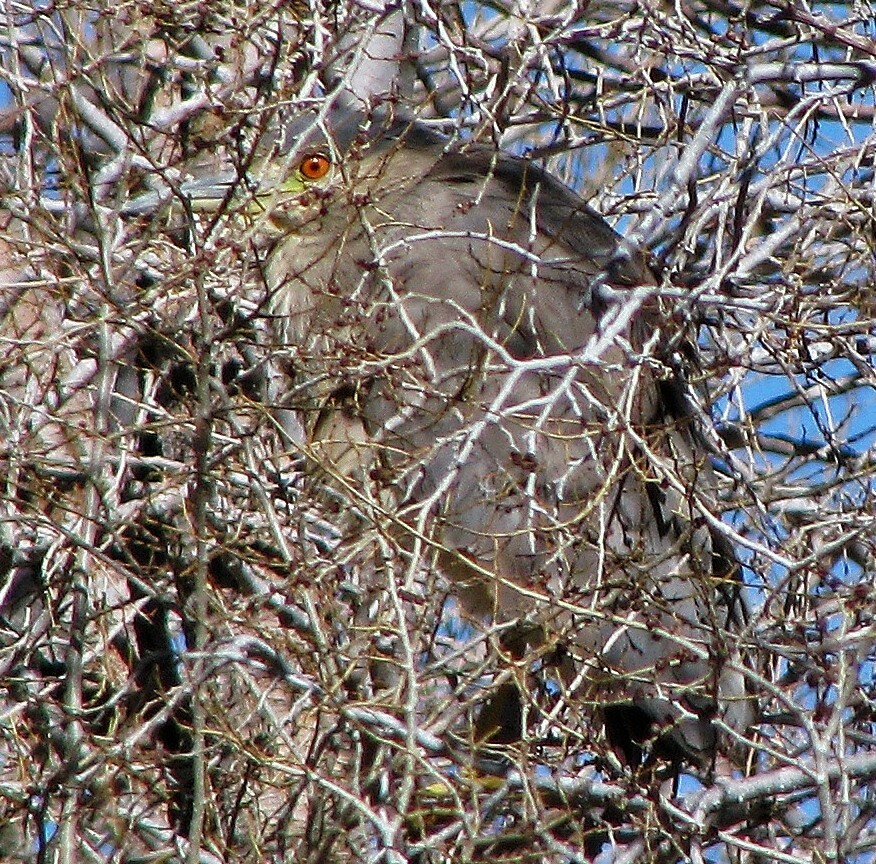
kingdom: Animalia
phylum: Chordata
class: Aves
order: Pelecaniformes
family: Ardeidae
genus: Nycticorax
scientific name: Nycticorax nycticorax
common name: Black-crowned night heron
